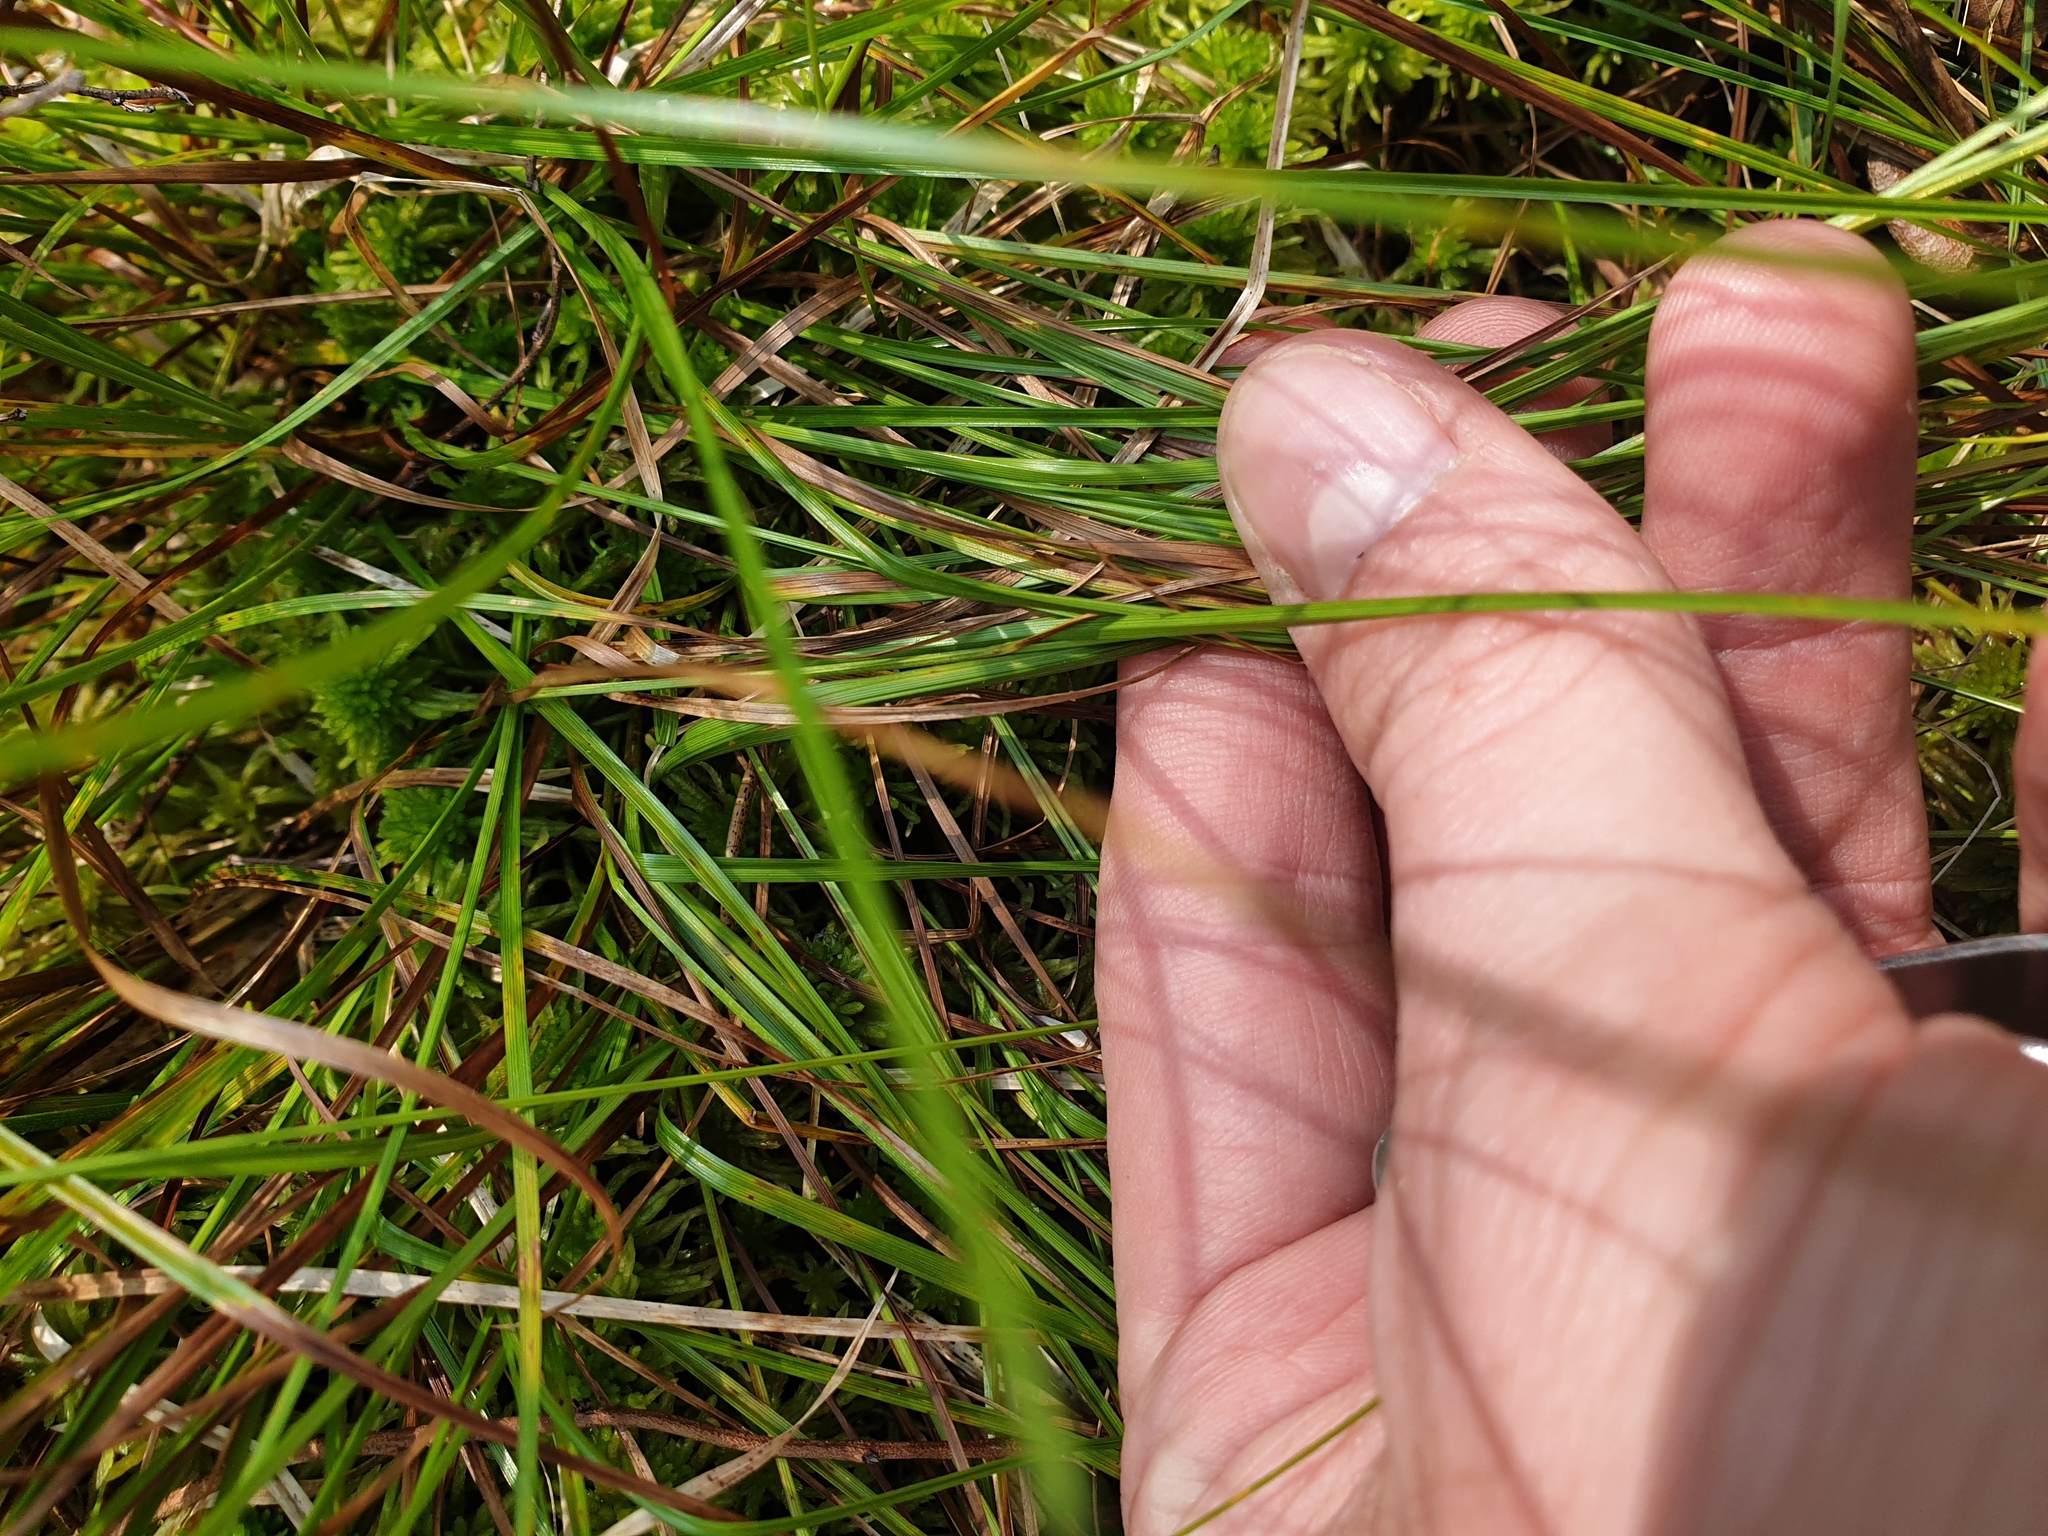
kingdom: Plantae
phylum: Tracheophyta
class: Liliopsida
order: Poales
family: Cyperaceae
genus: Carex
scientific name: Carex trisperma
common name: Three-seeded sedge
